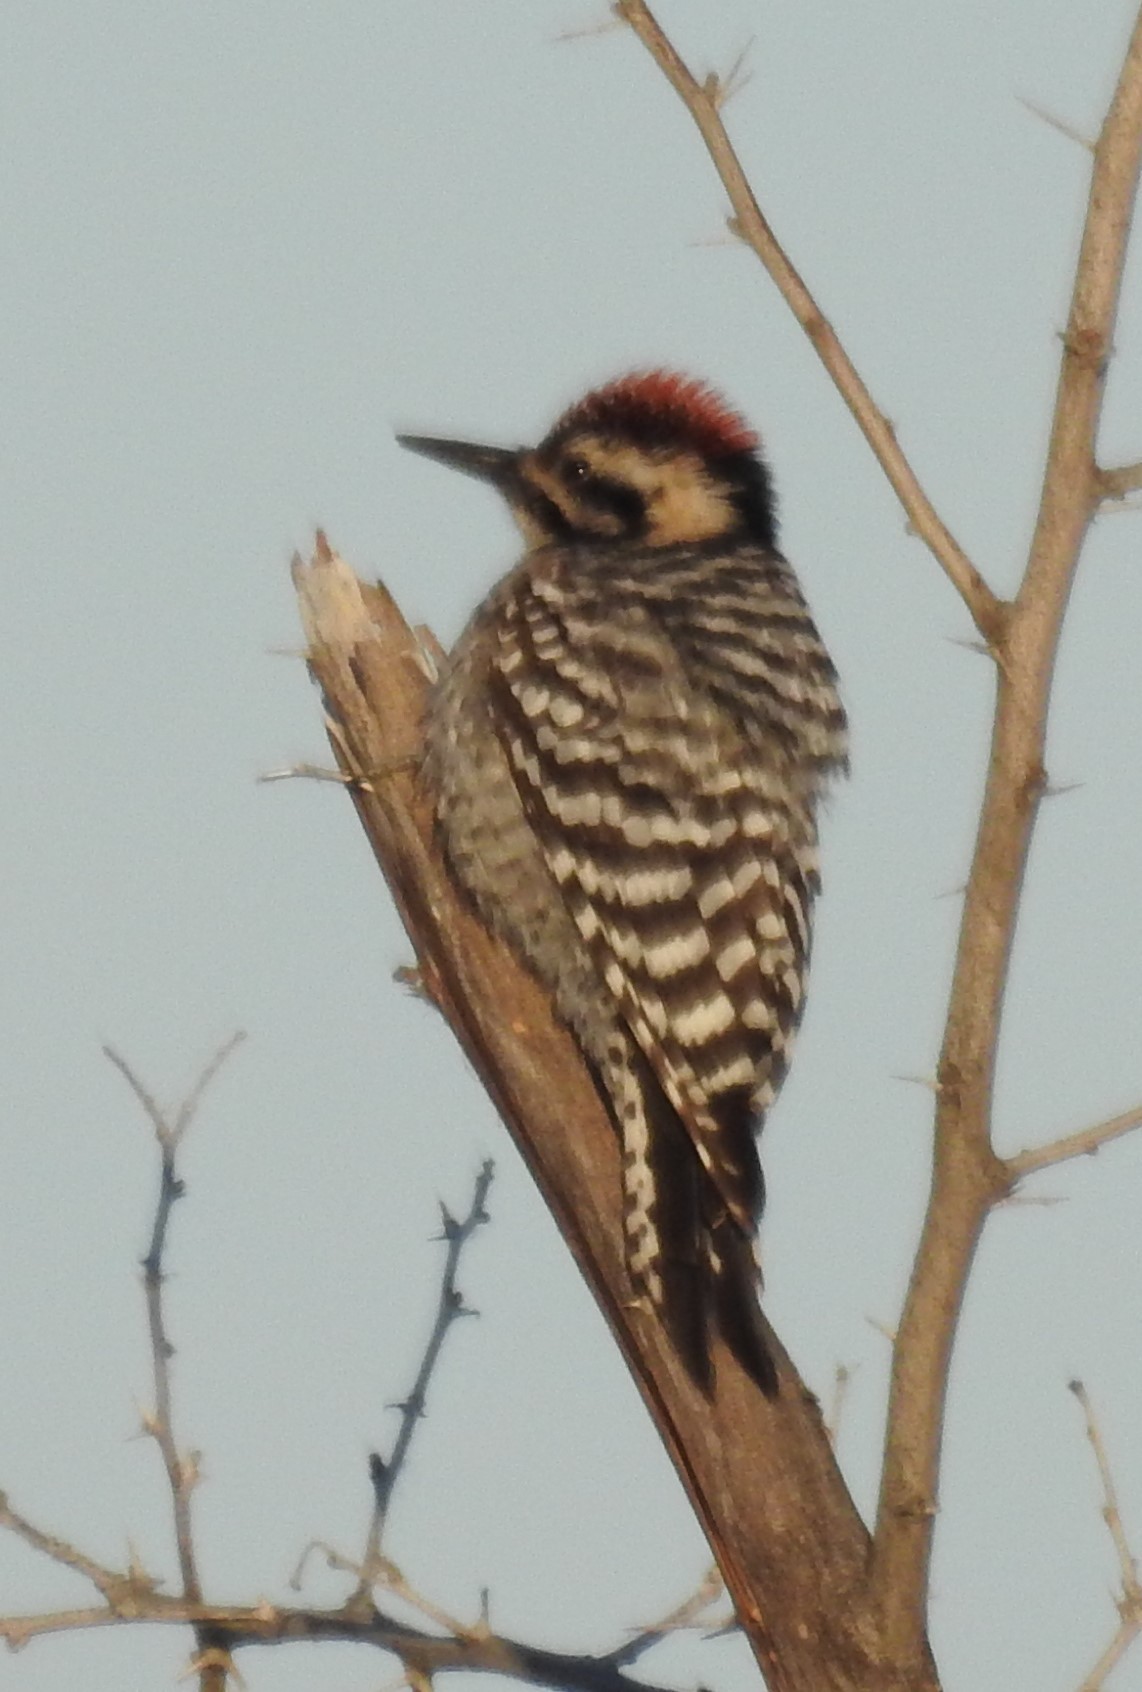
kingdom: Animalia
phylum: Chordata
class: Aves
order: Piciformes
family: Picidae
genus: Dryobates
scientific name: Dryobates scalaris
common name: Ladder-backed woodpecker
